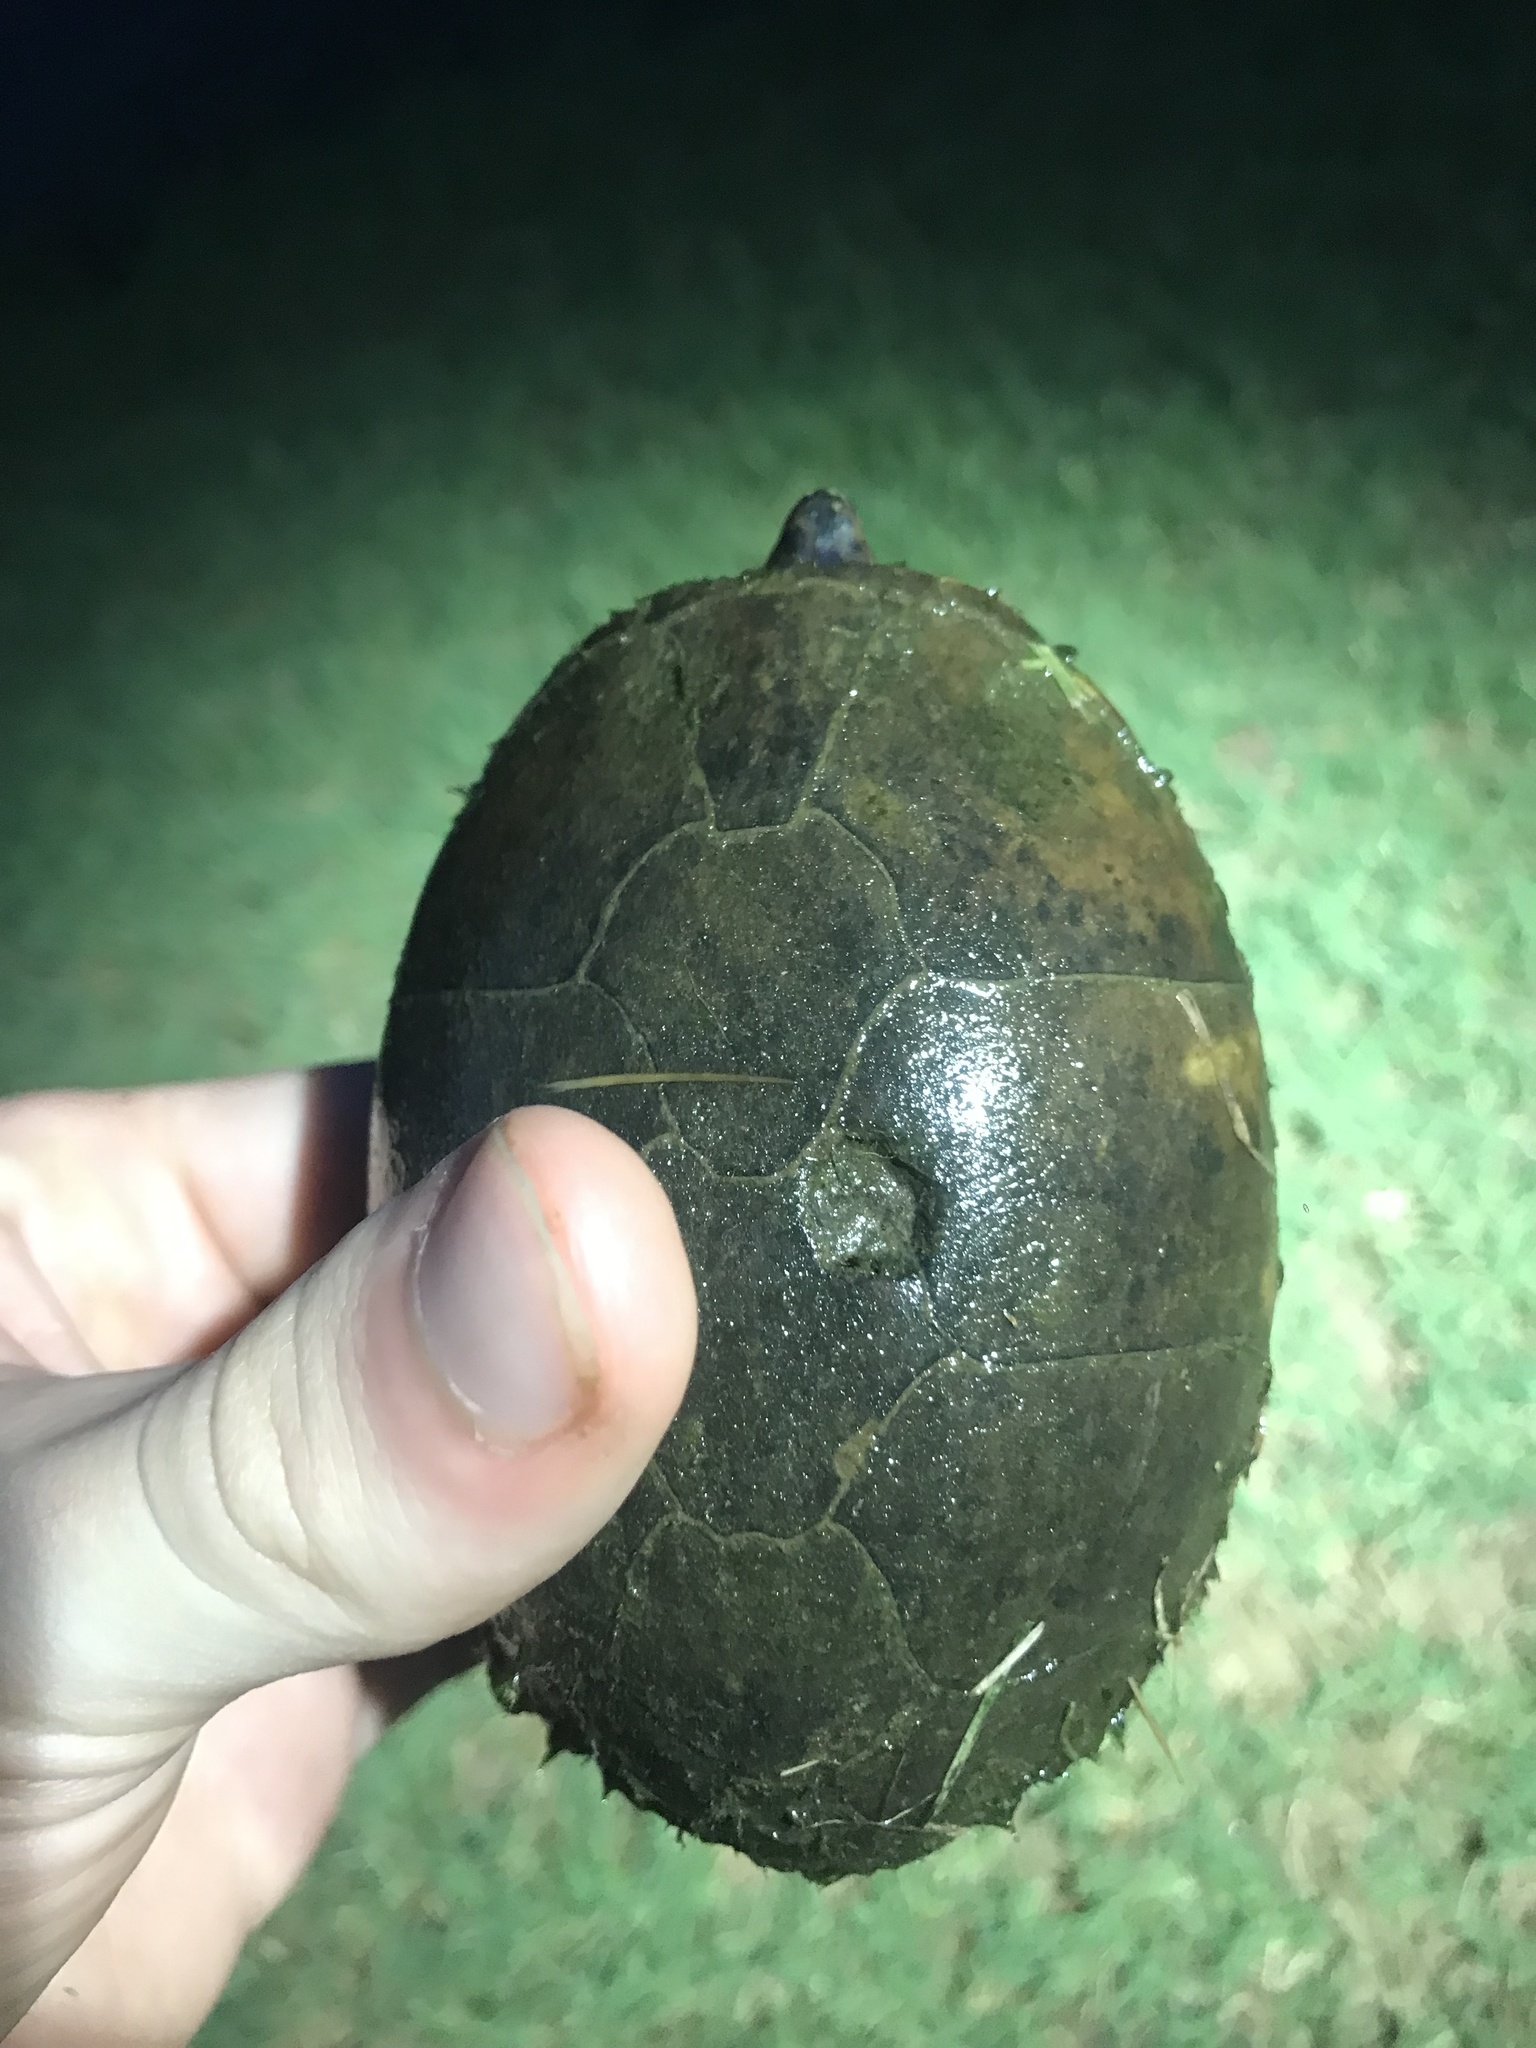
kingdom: Animalia
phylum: Chordata
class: Testudines
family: Kinosternidae
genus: Sternotherus
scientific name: Sternotherus odoratus
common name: Common musk turtle
